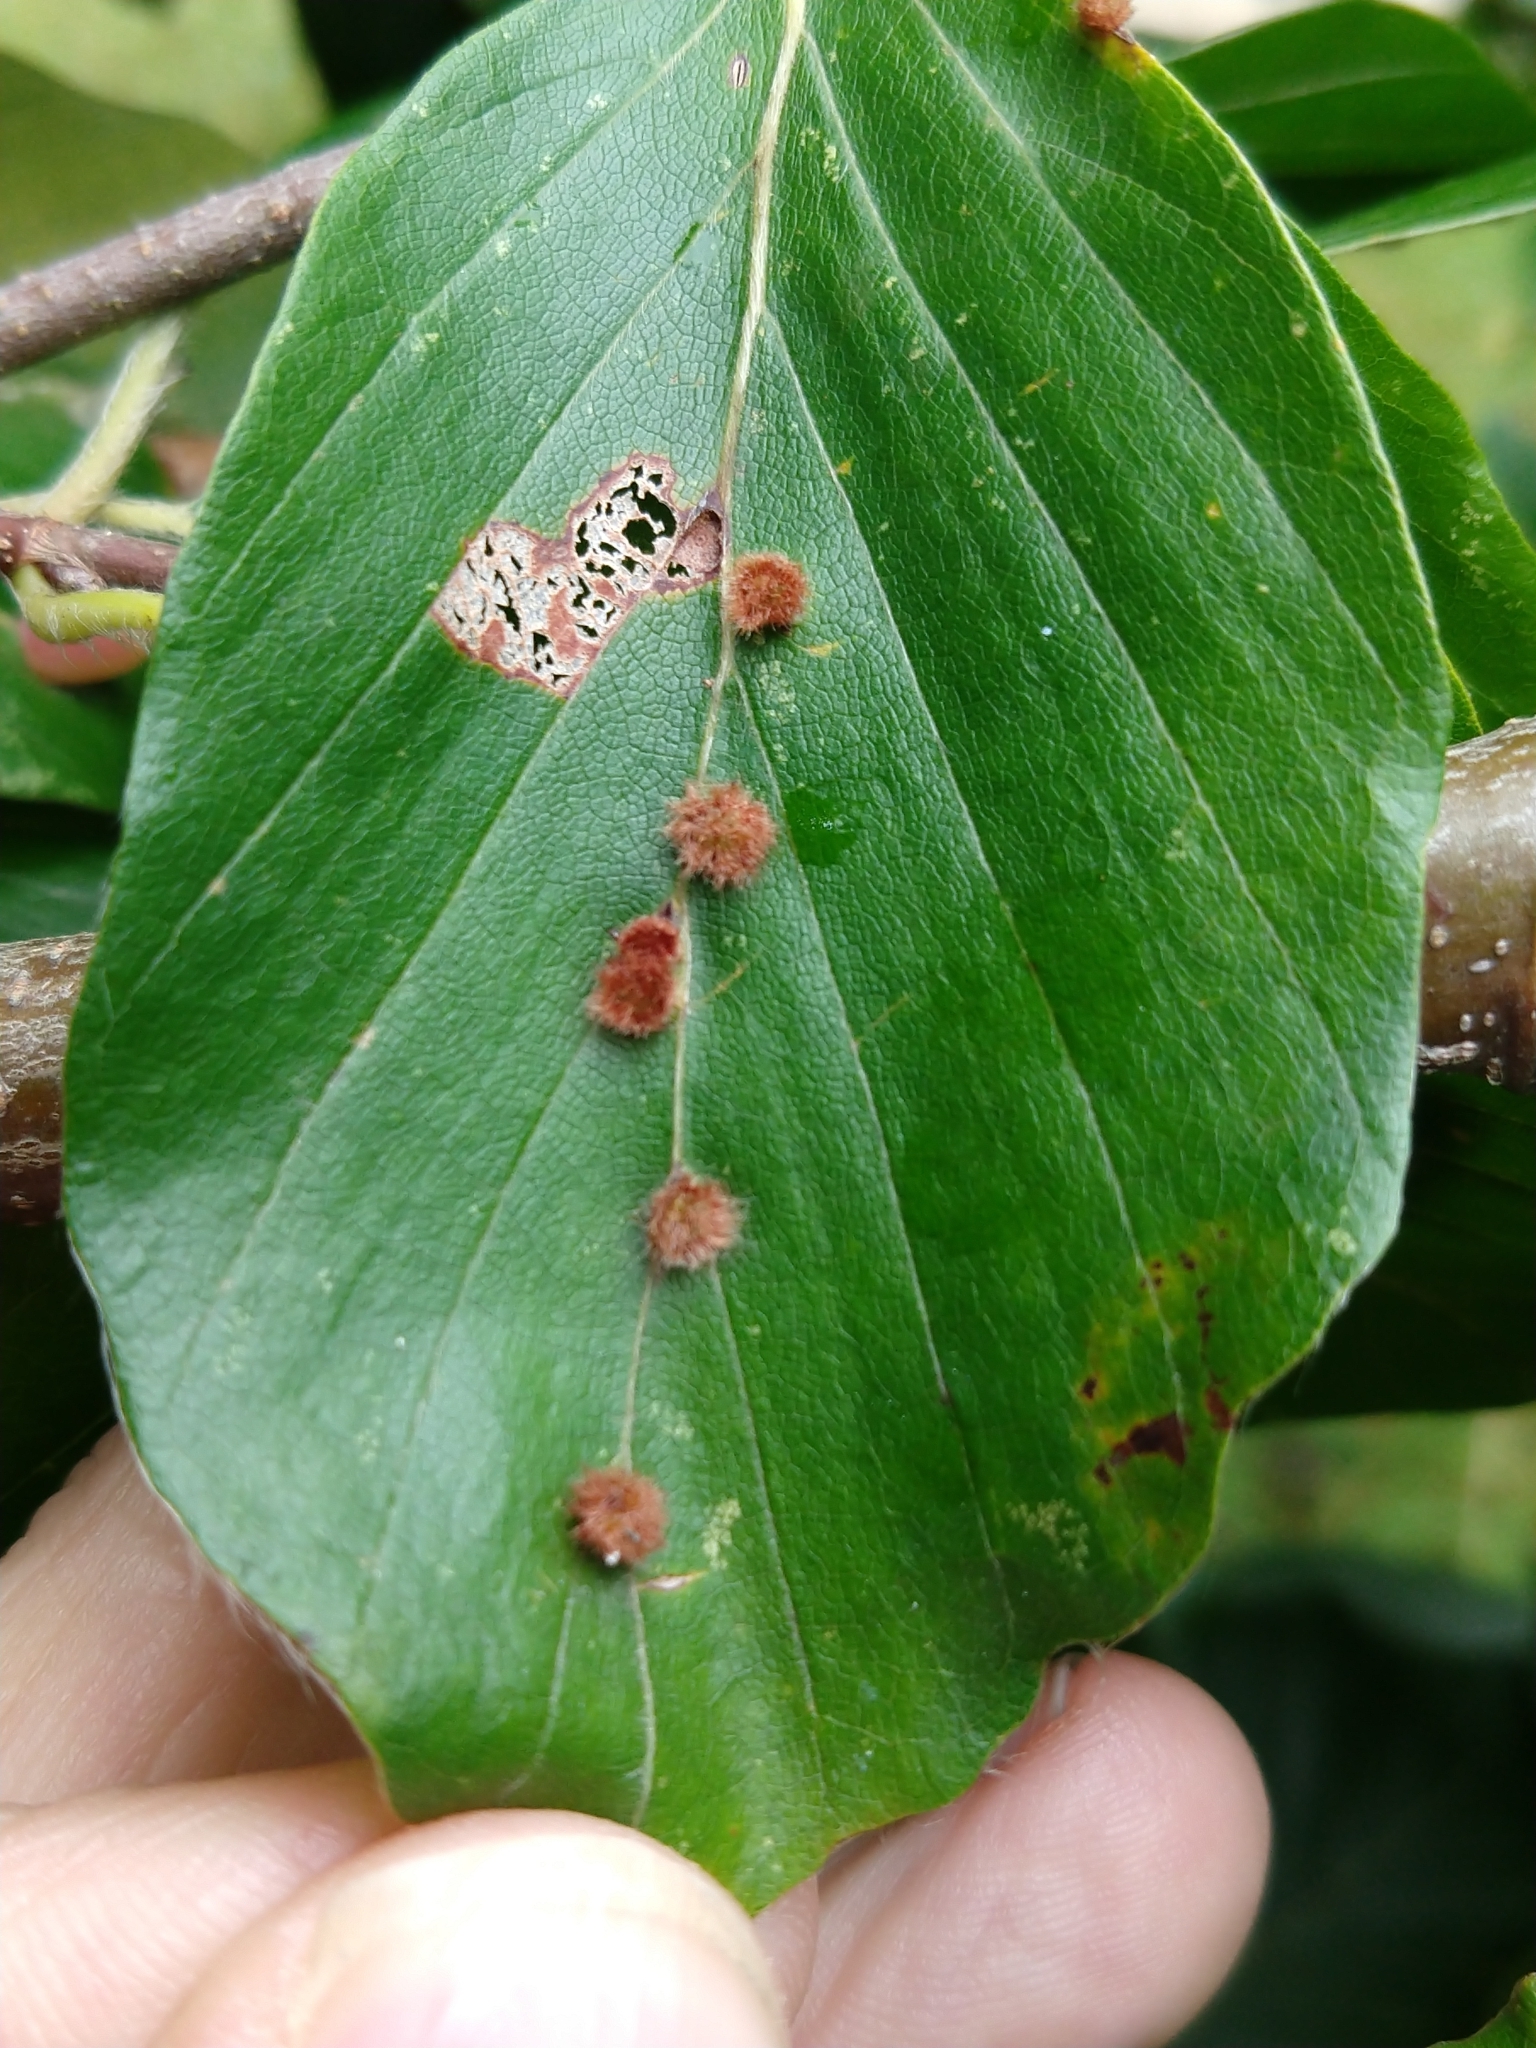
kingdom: Animalia
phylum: Arthropoda
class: Insecta
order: Diptera
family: Cecidomyiidae
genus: Hartigiola
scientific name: Hartigiola annulipes
